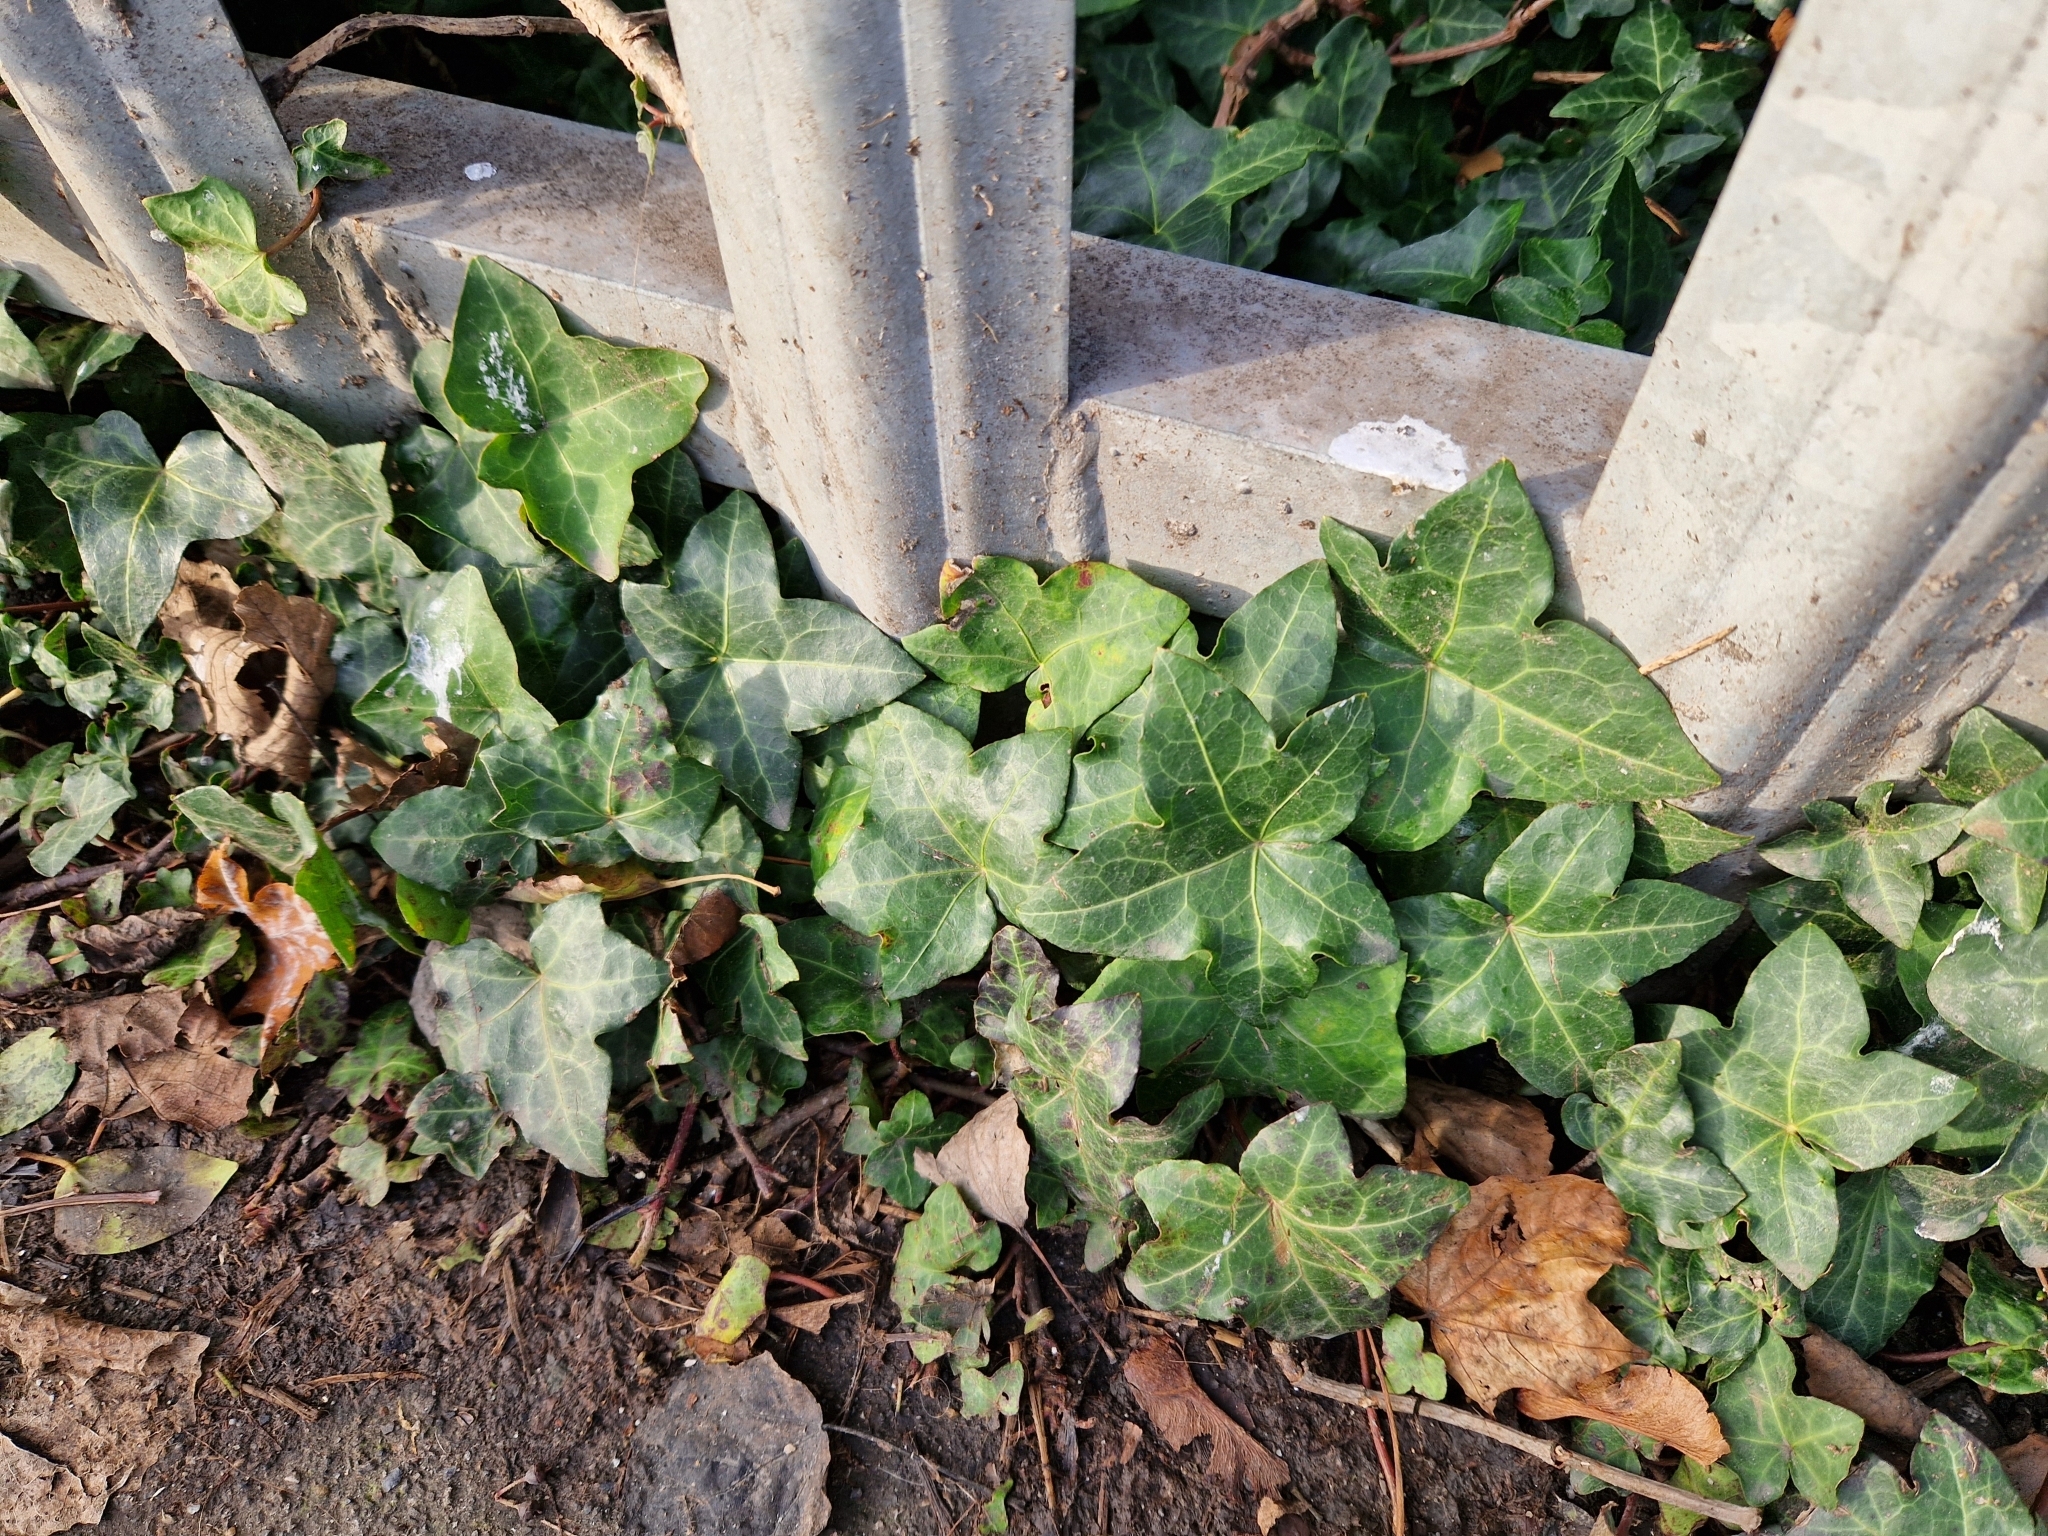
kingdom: Plantae
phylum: Tracheophyta
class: Magnoliopsida
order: Apiales
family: Araliaceae
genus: Hedera
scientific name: Hedera helix
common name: Ivy
